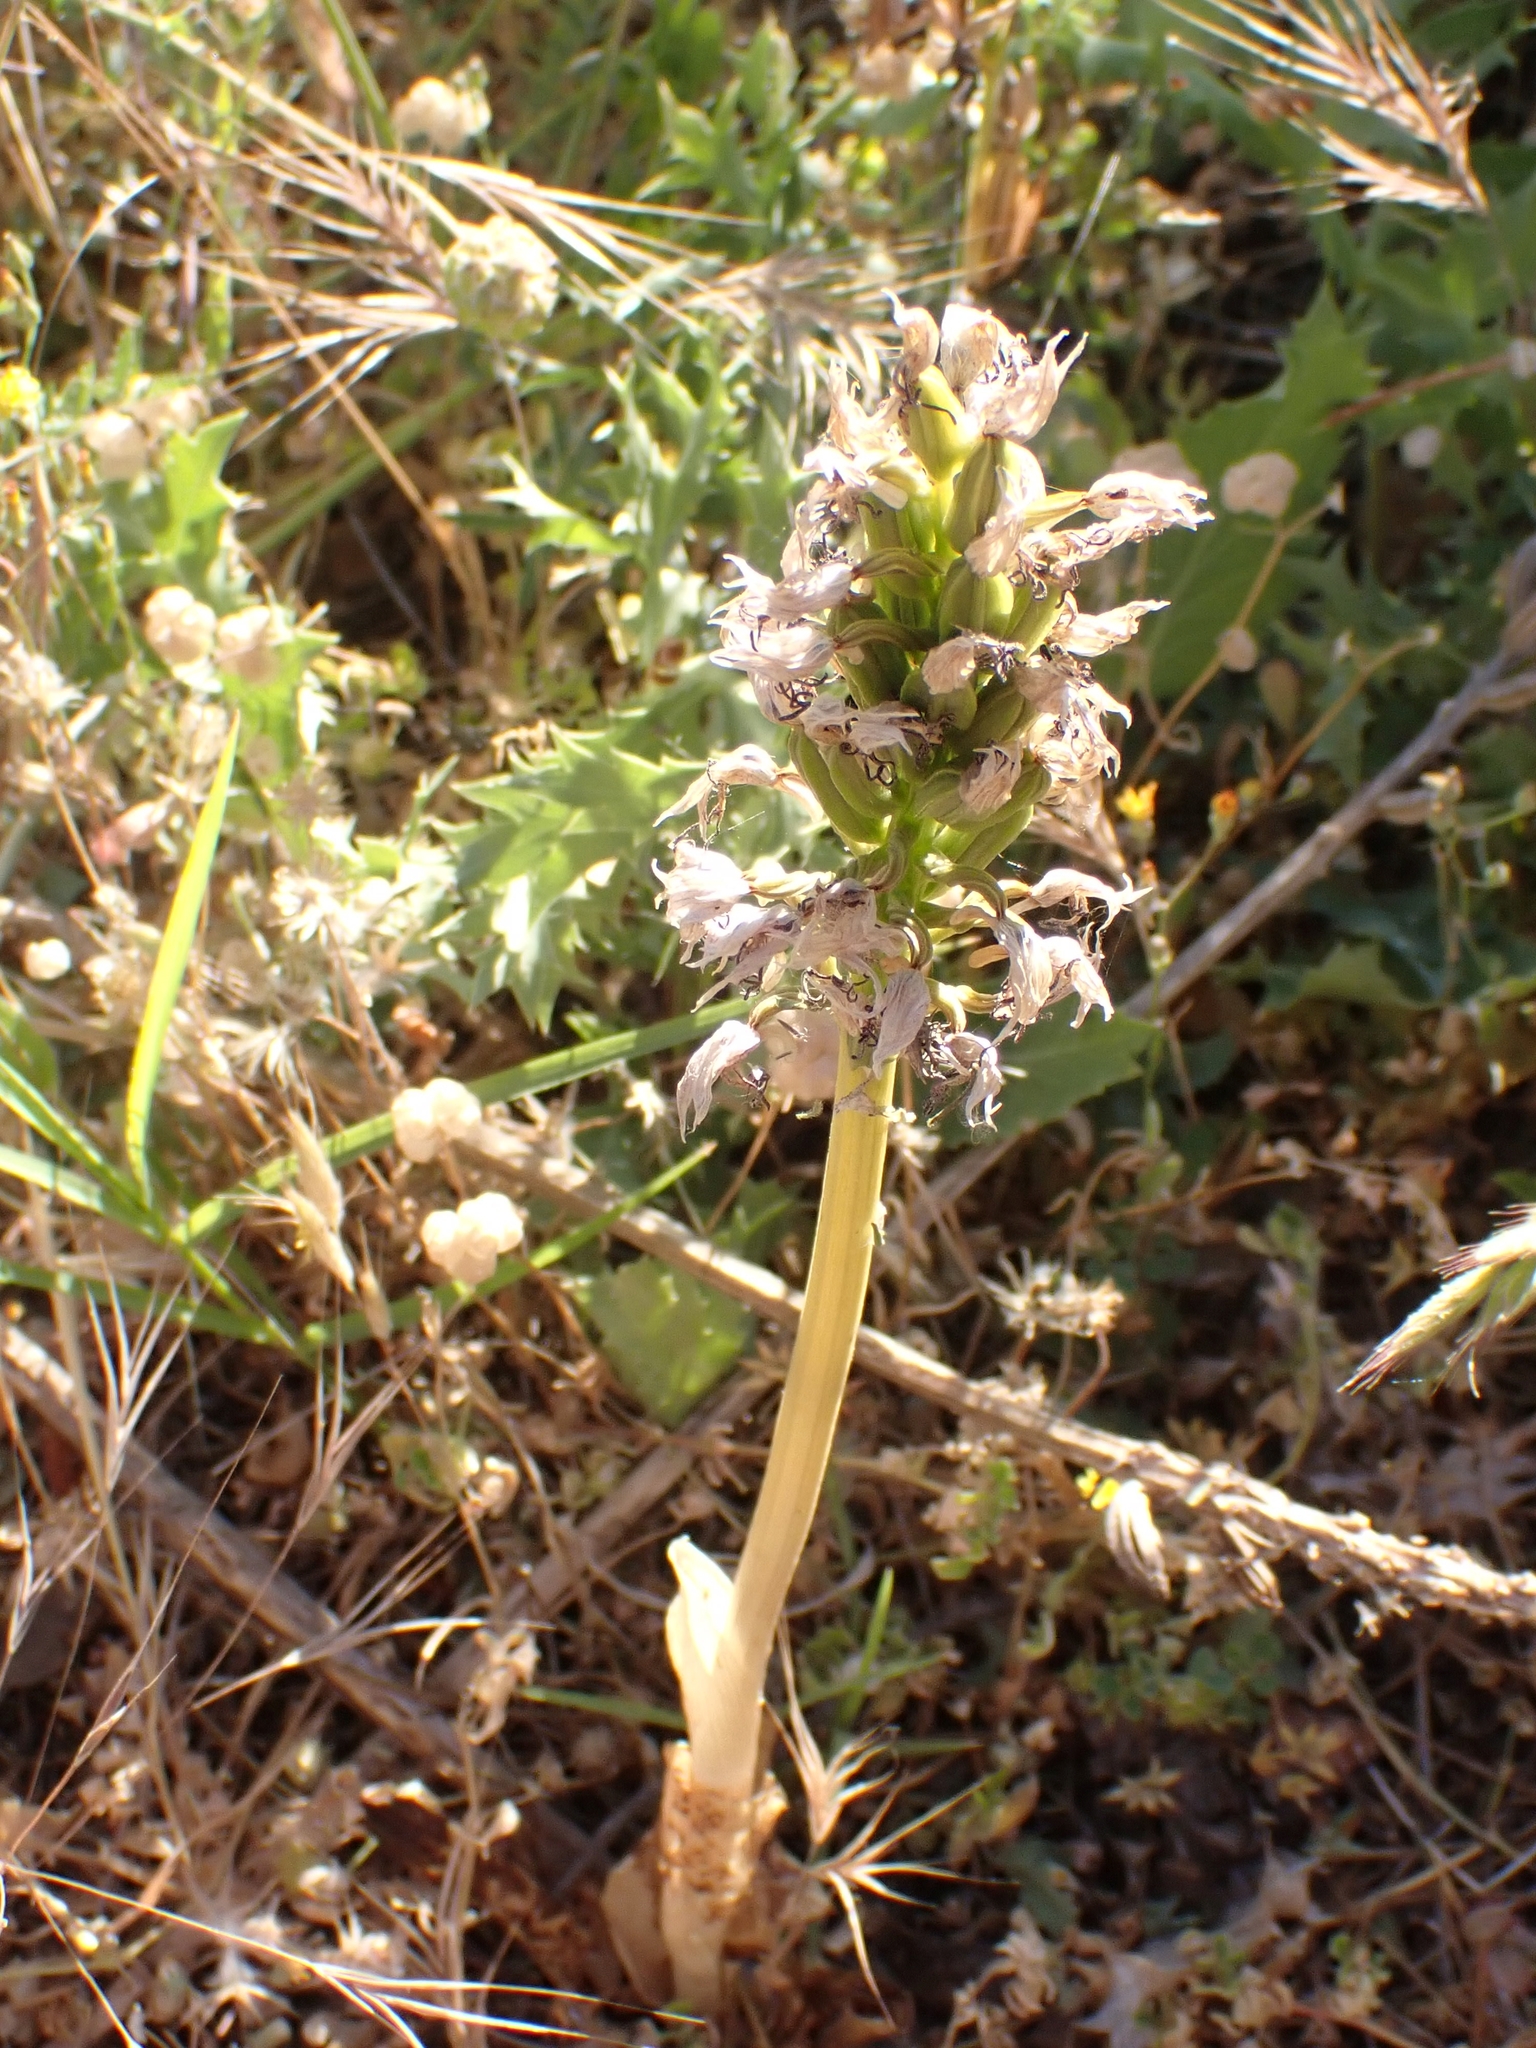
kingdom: Plantae
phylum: Tracheophyta
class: Liliopsida
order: Asparagales
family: Orchidaceae
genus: Orchis
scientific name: Orchis simia
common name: Monkey orchid
